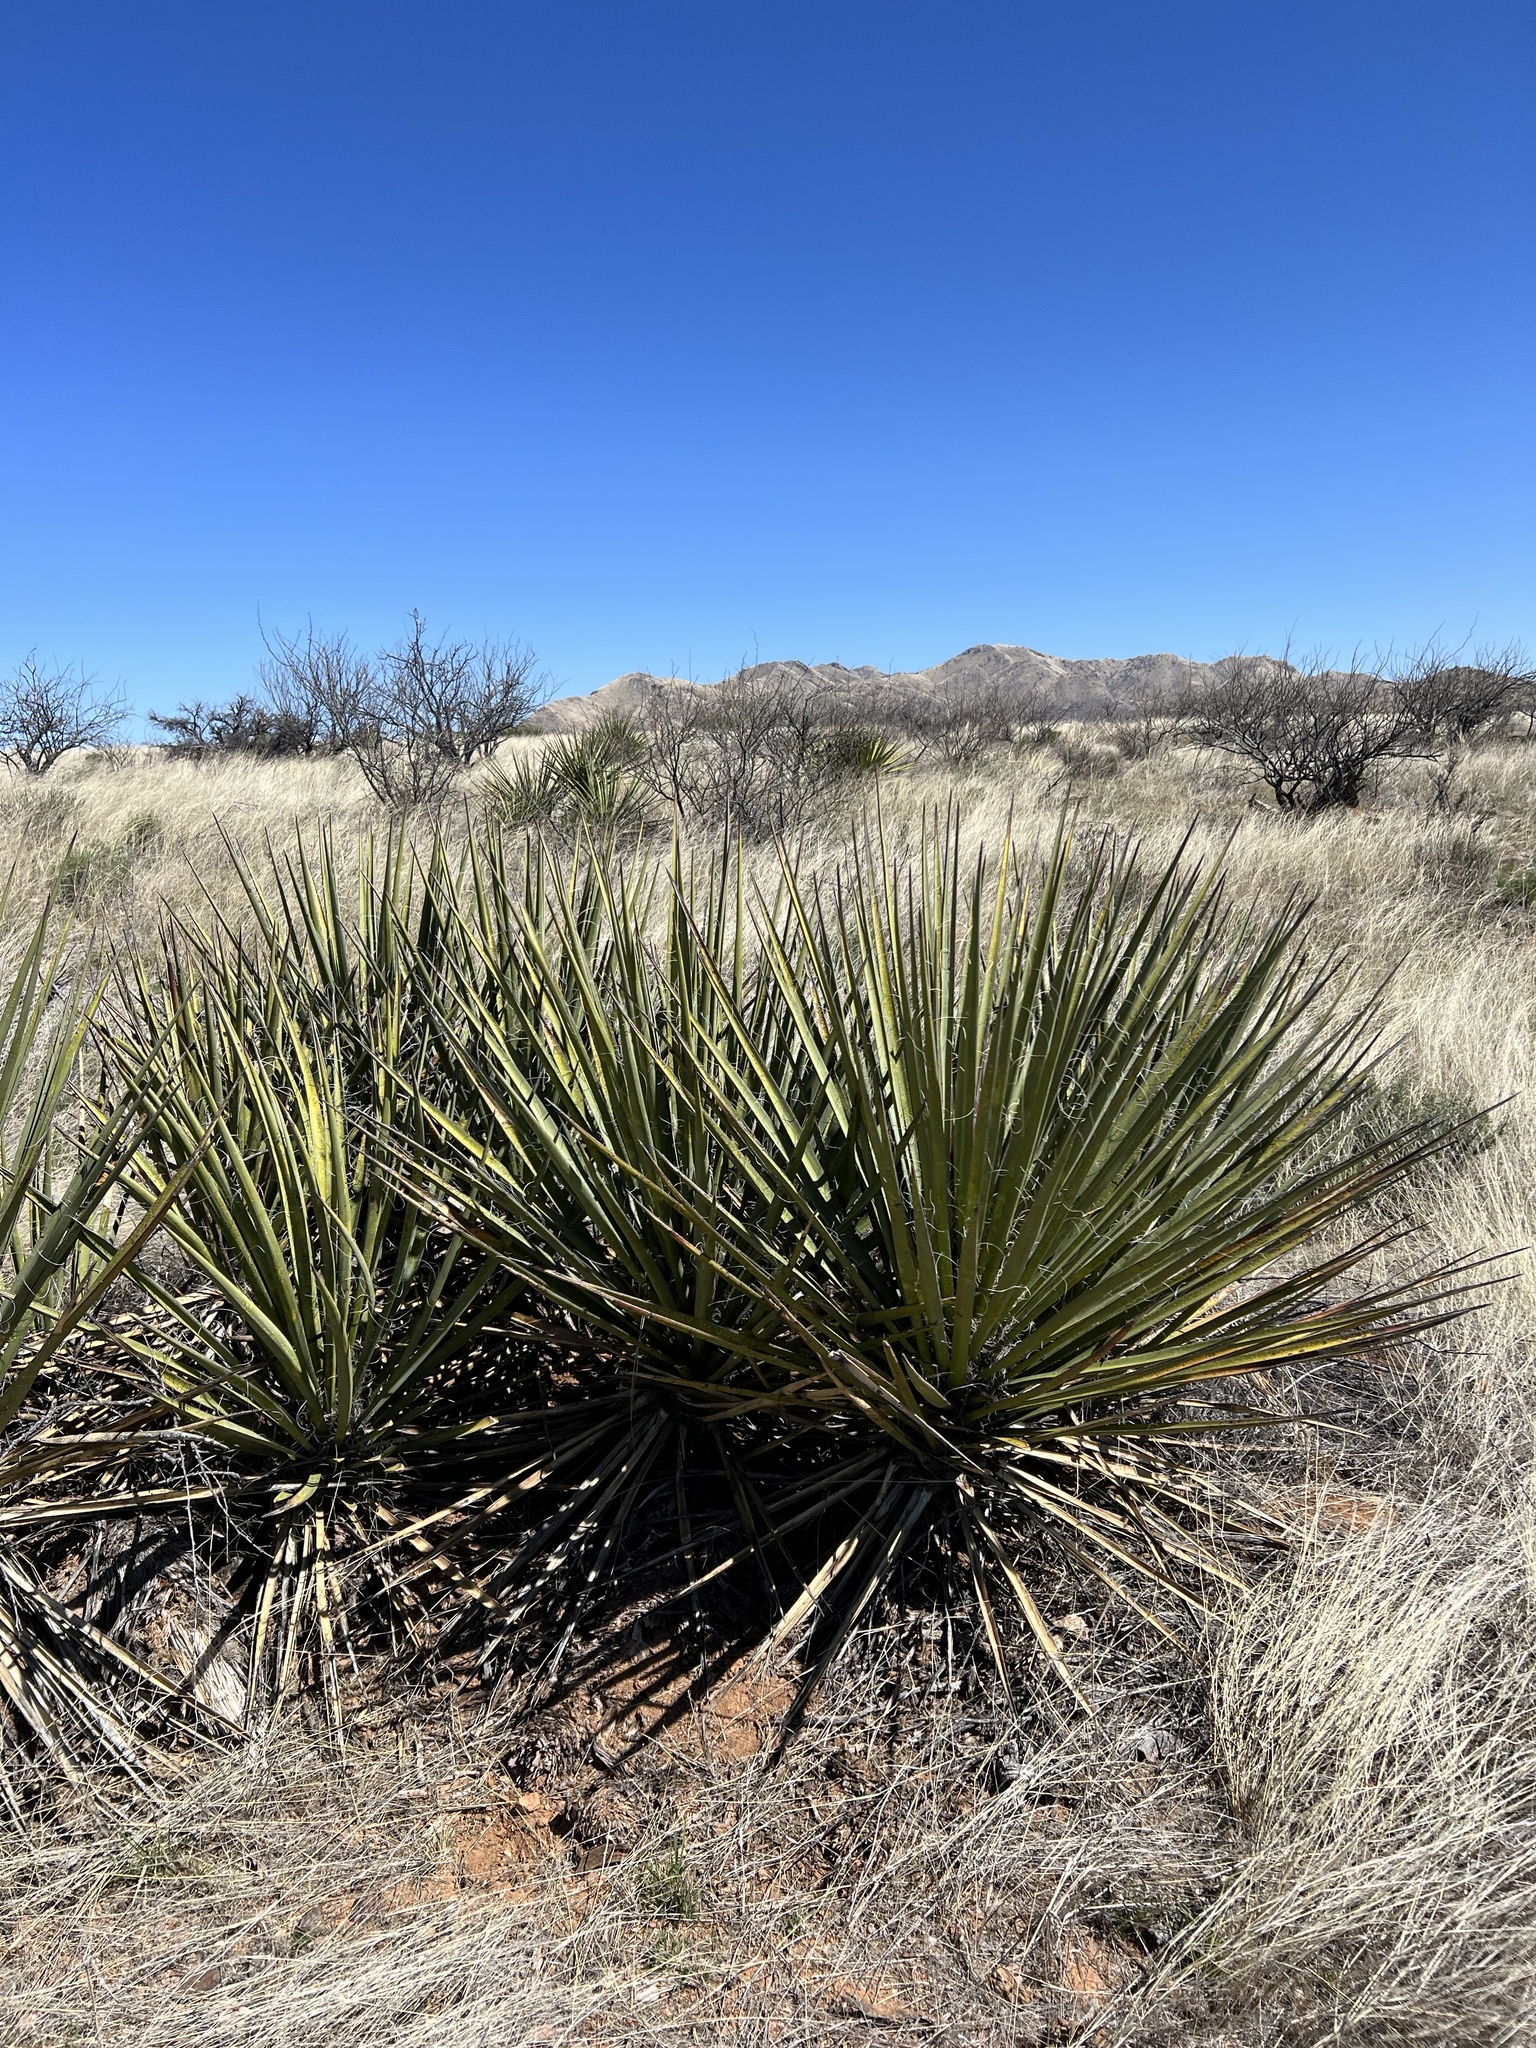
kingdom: Plantae
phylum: Tracheophyta
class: Liliopsida
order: Asparagales
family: Asparagaceae
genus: Yucca
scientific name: Yucca baccata
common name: Banana yucca
